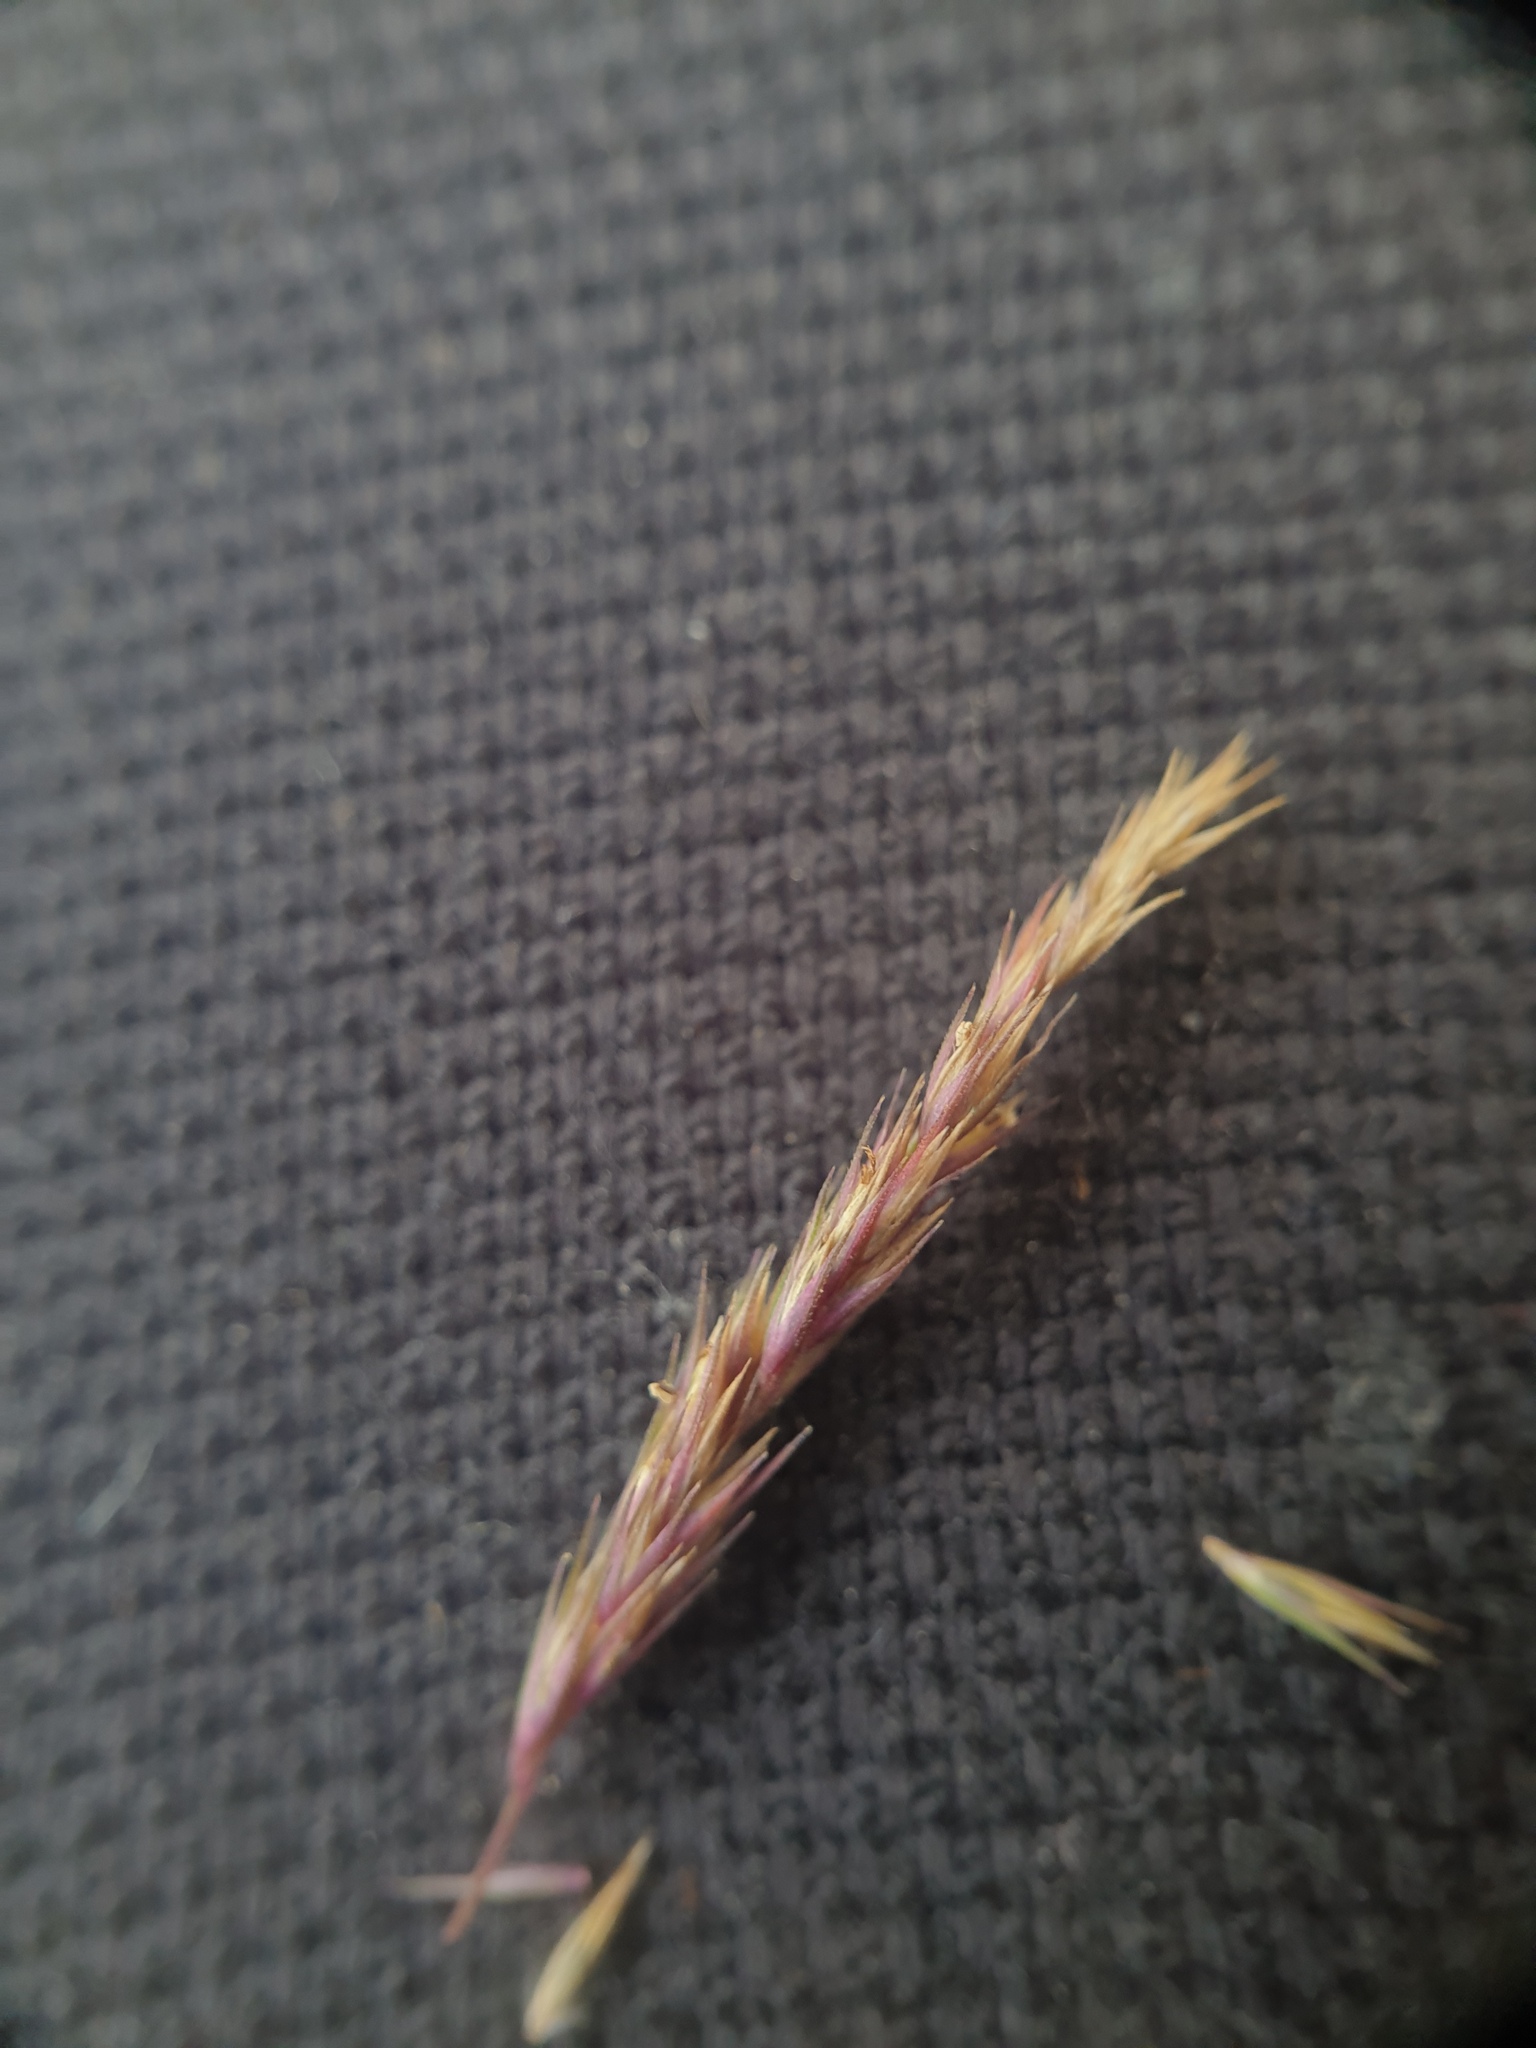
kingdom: Plantae
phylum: Tracheophyta
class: Liliopsida
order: Poales
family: Poaceae
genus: Muhlenbergia
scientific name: Muhlenbergia mexicana
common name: Mexican muhly
